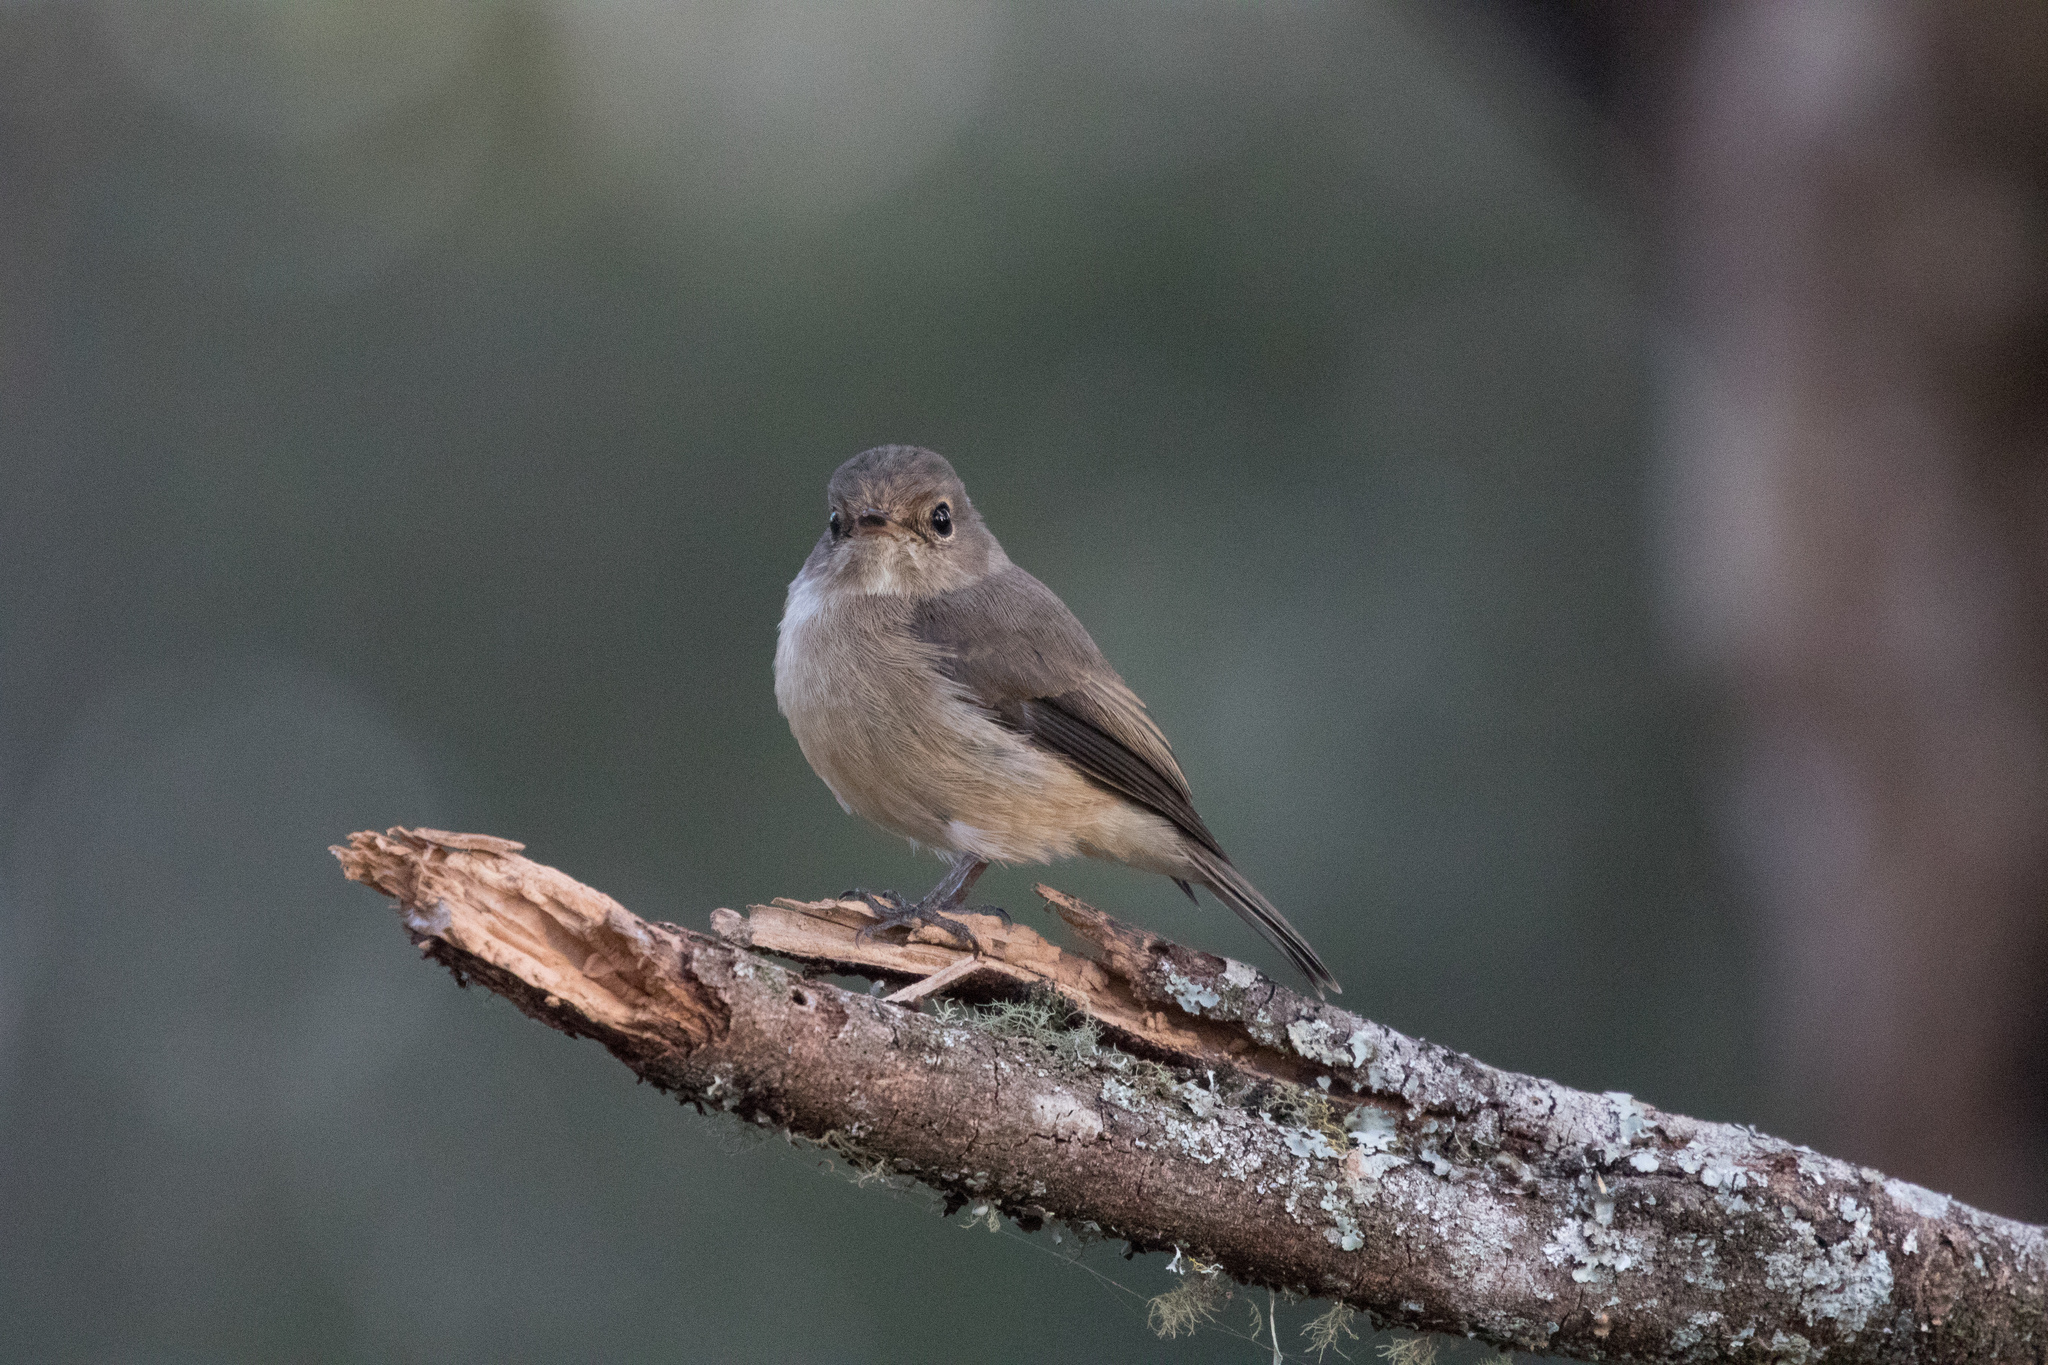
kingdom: Animalia
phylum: Chordata
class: Aves
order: Passeriformes
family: Muscicapidae
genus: Muscicapa
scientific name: Muscicapa adusta
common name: African dusky flycatcher
